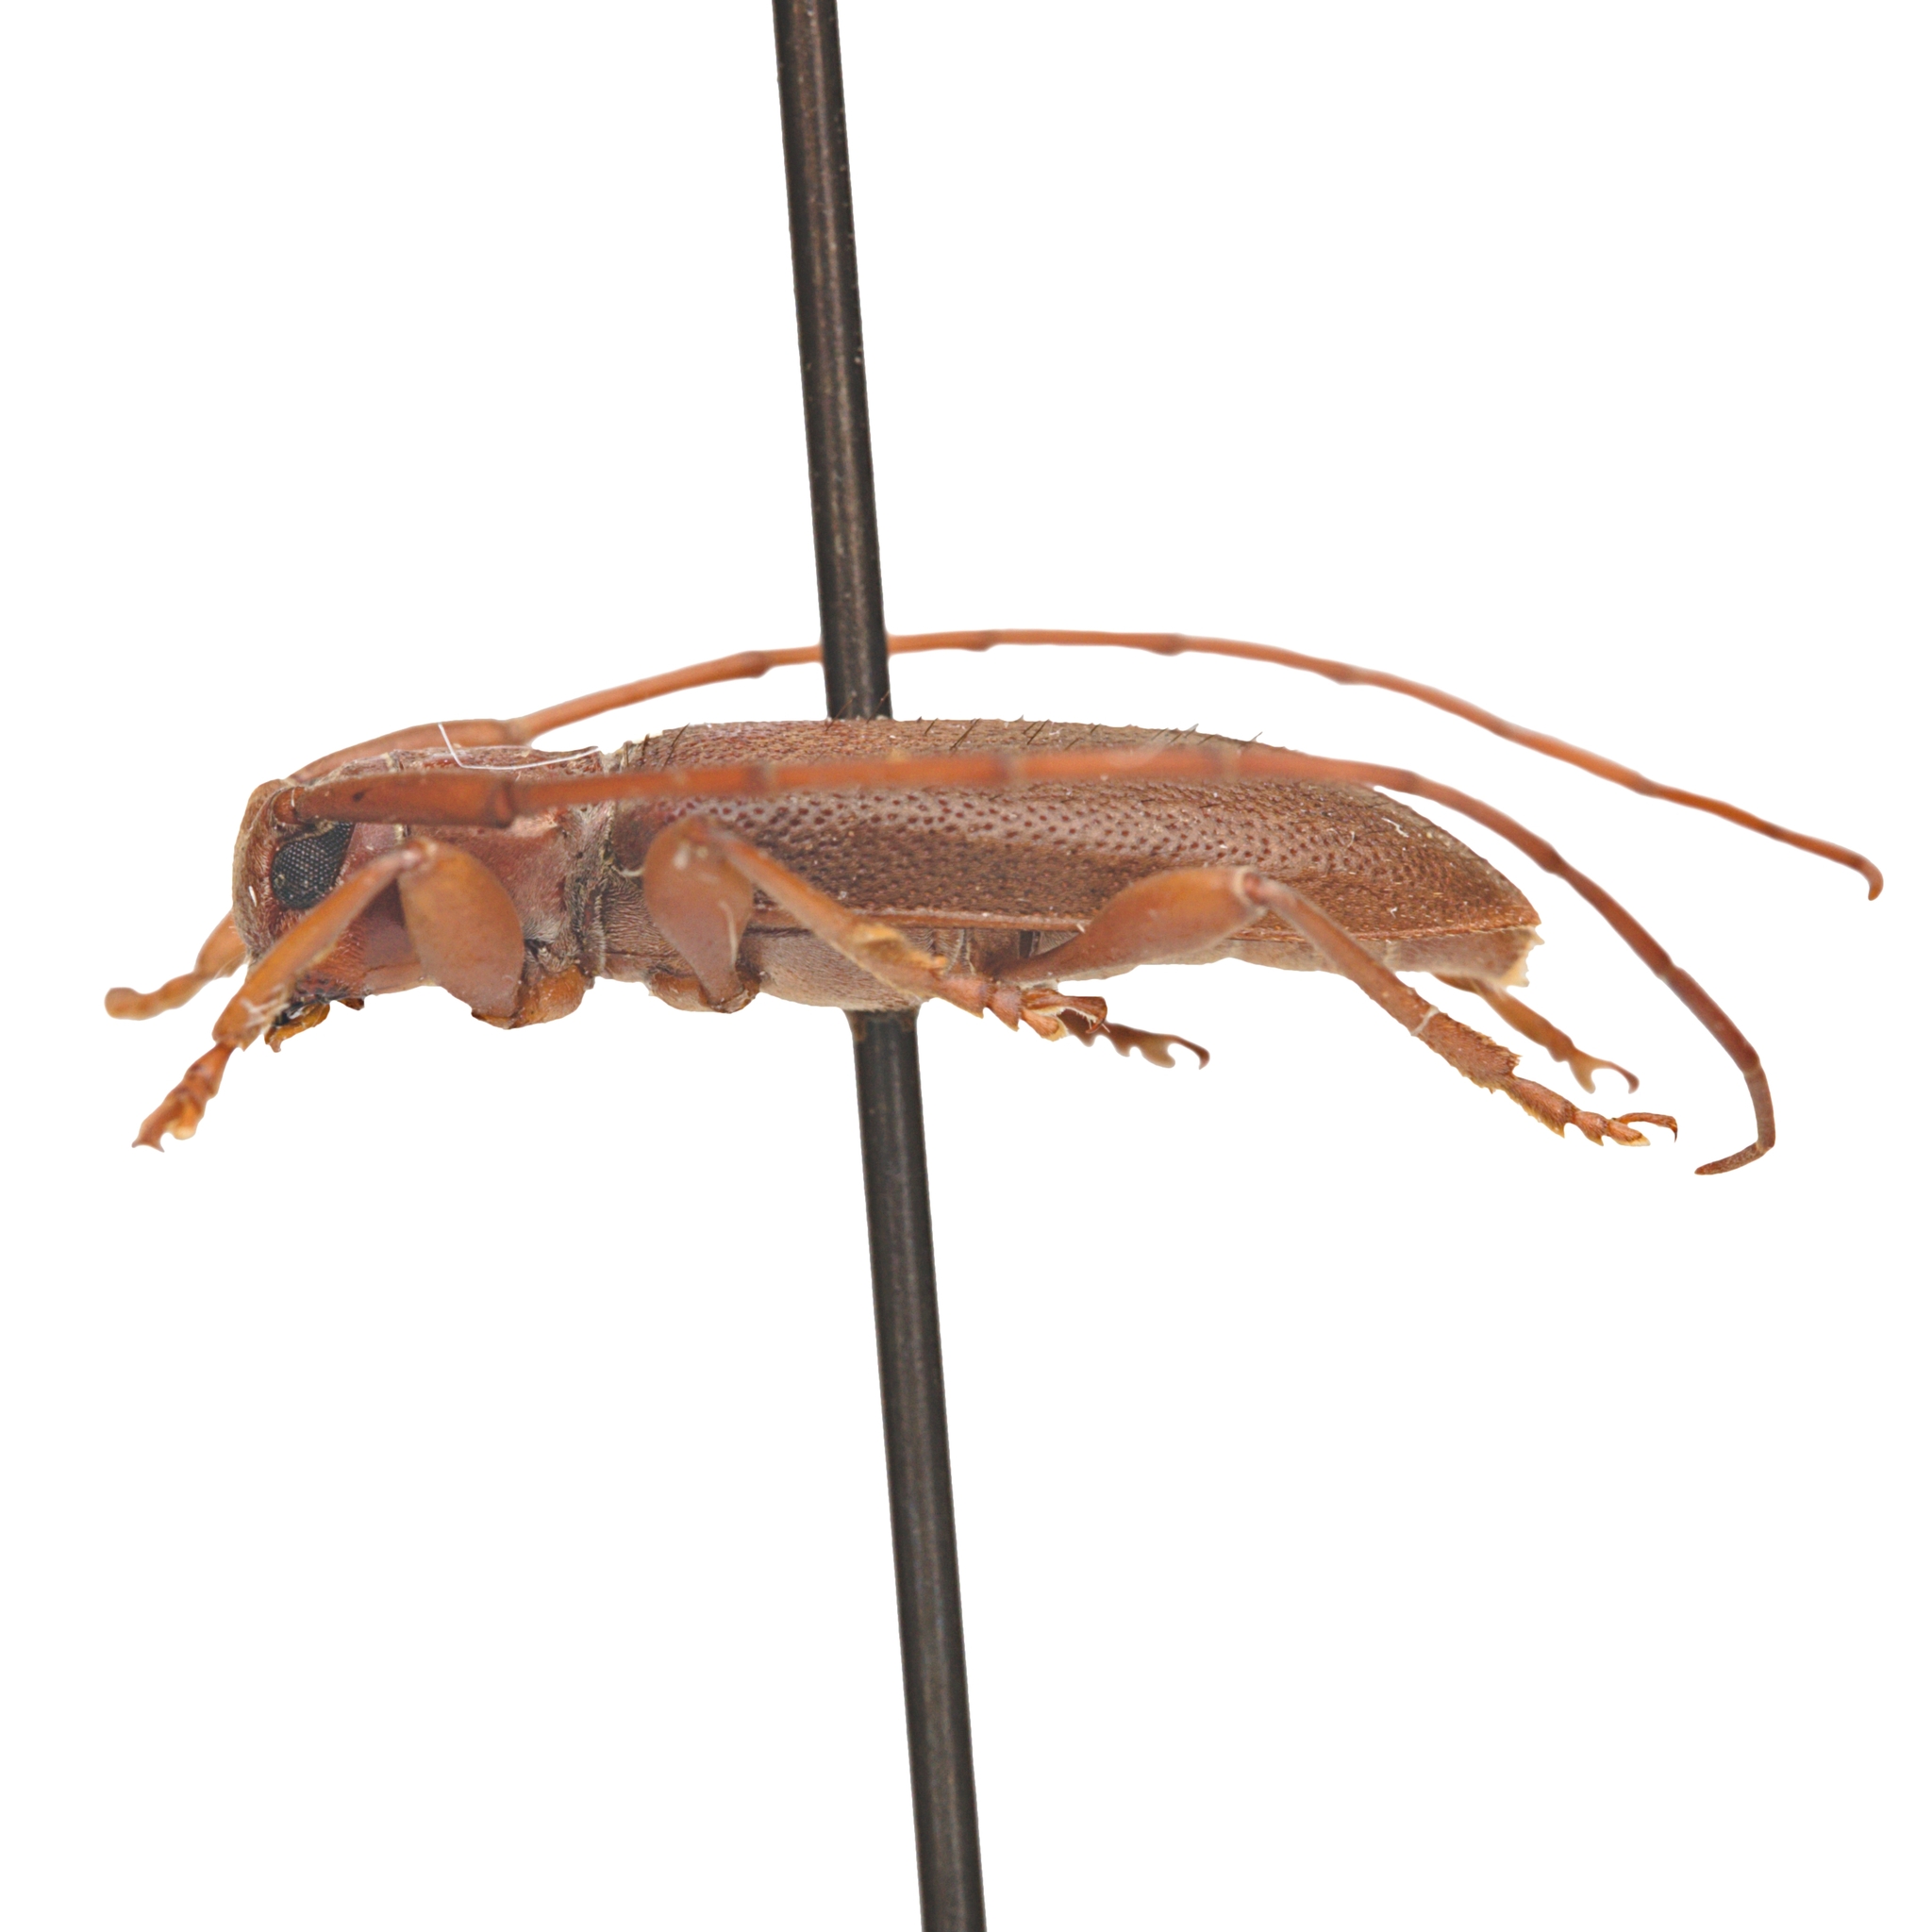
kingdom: Animalia
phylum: Arthropoda
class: Insecta
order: Coleoptera
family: Cerambycidae
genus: Valenus
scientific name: Valenus inornatus
